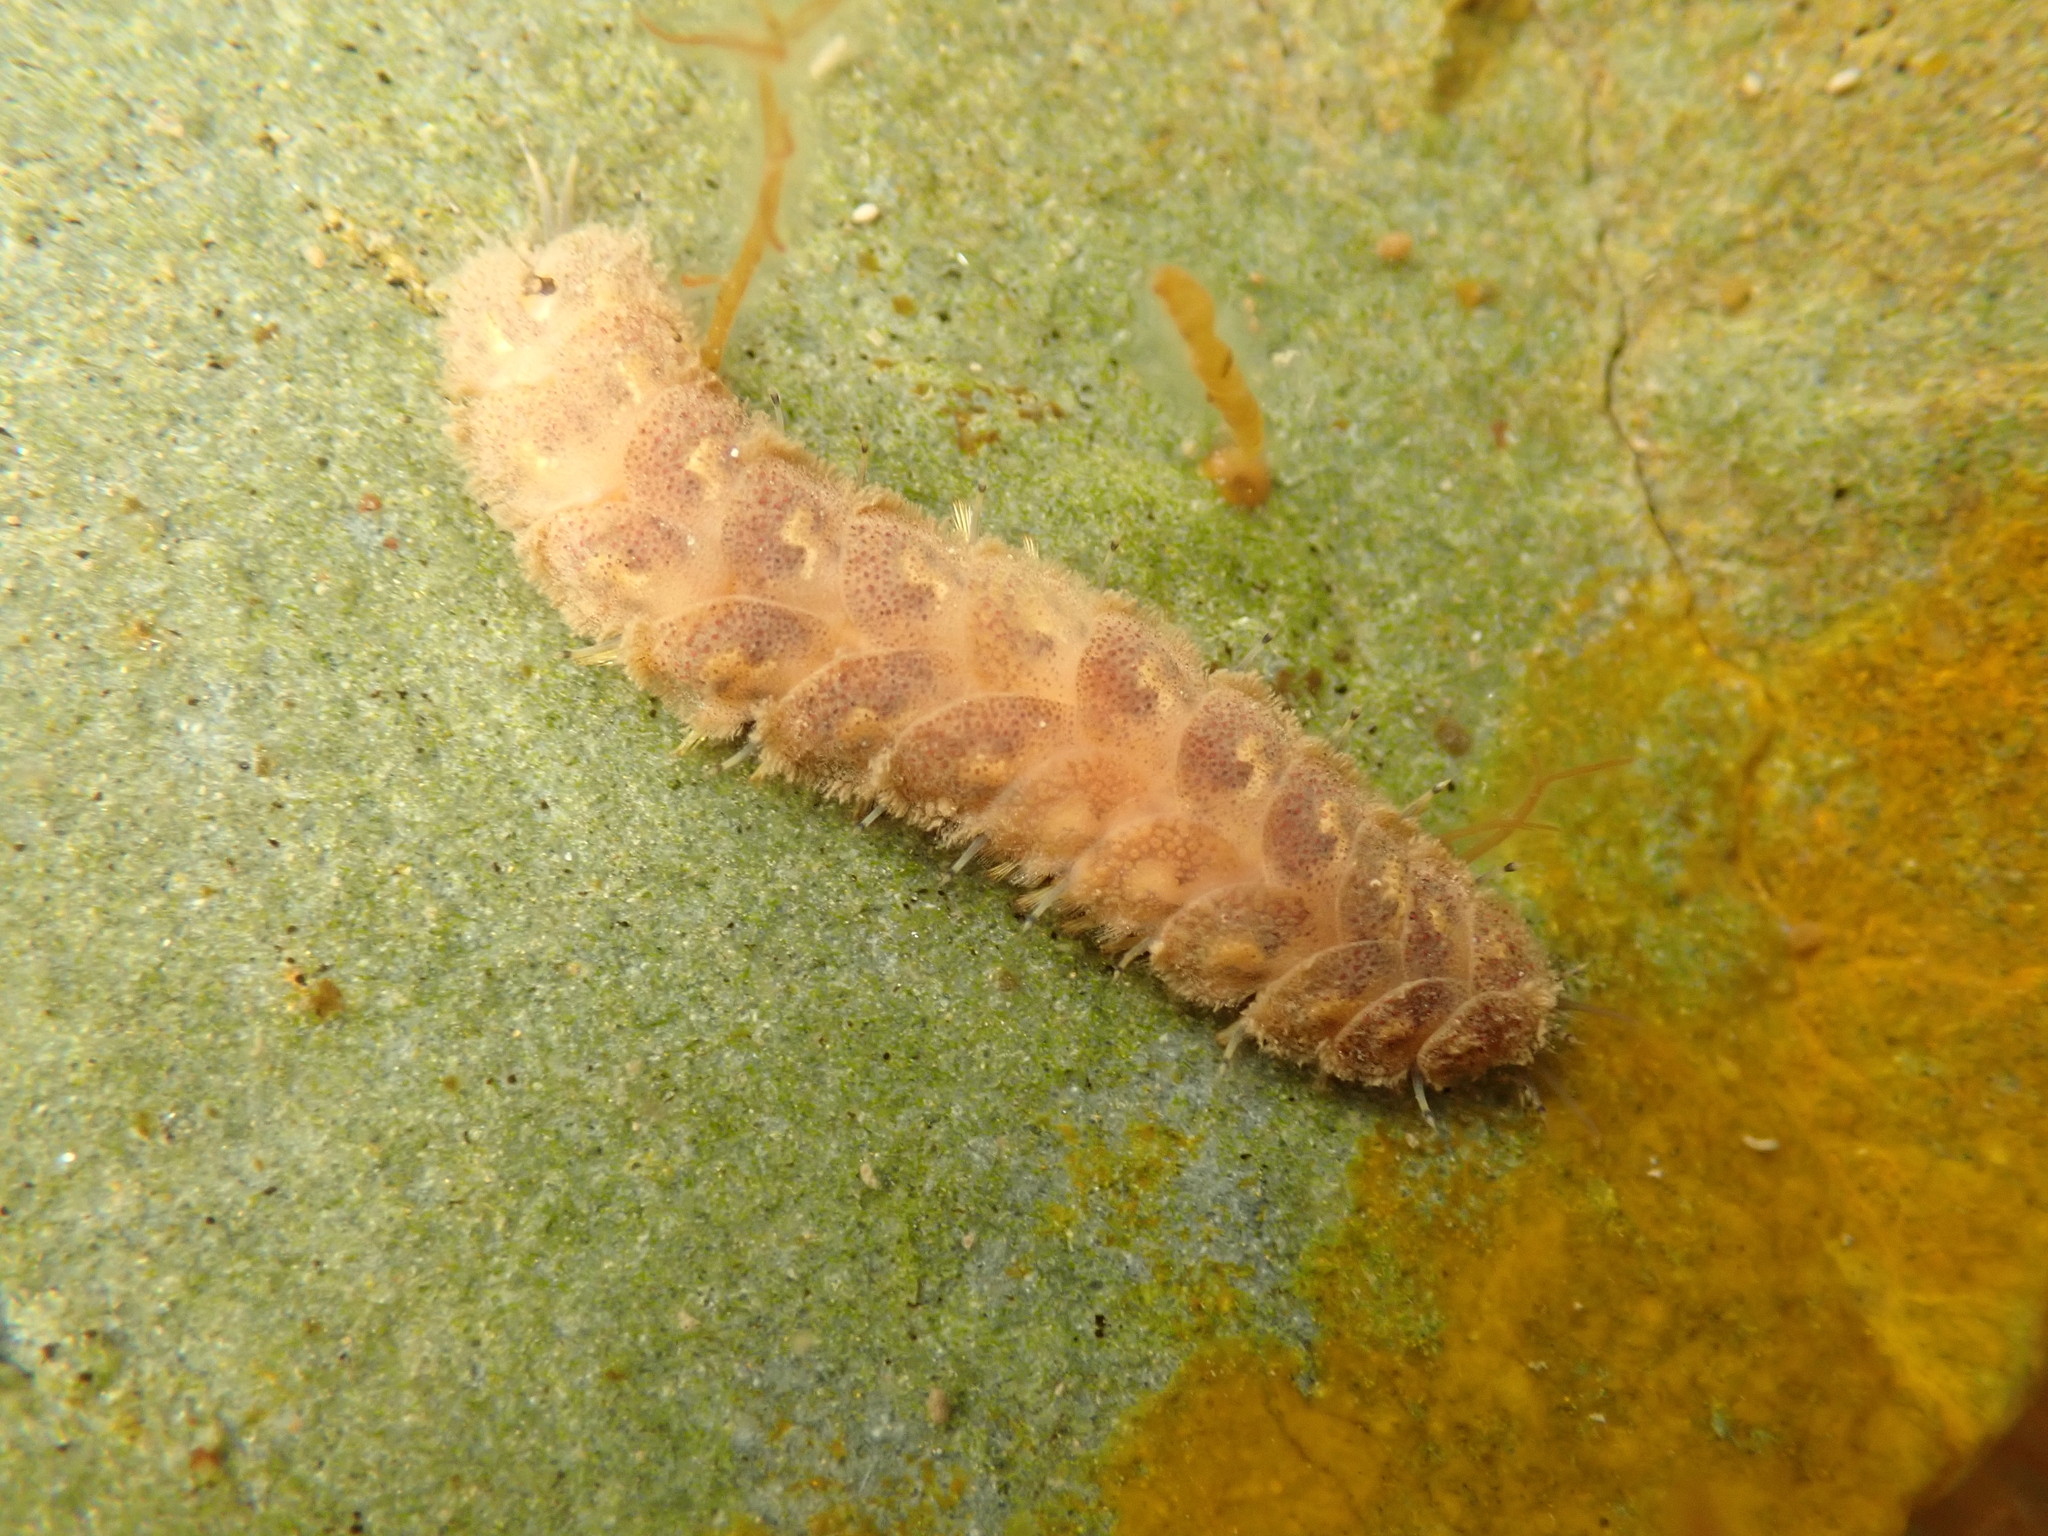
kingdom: Animalia
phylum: Annelida
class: Polychaeta
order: Phyllodocida
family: Polynoidae
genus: Lepidonotus
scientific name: Lepidonotus squamatus
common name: Twelve-scaled worm
